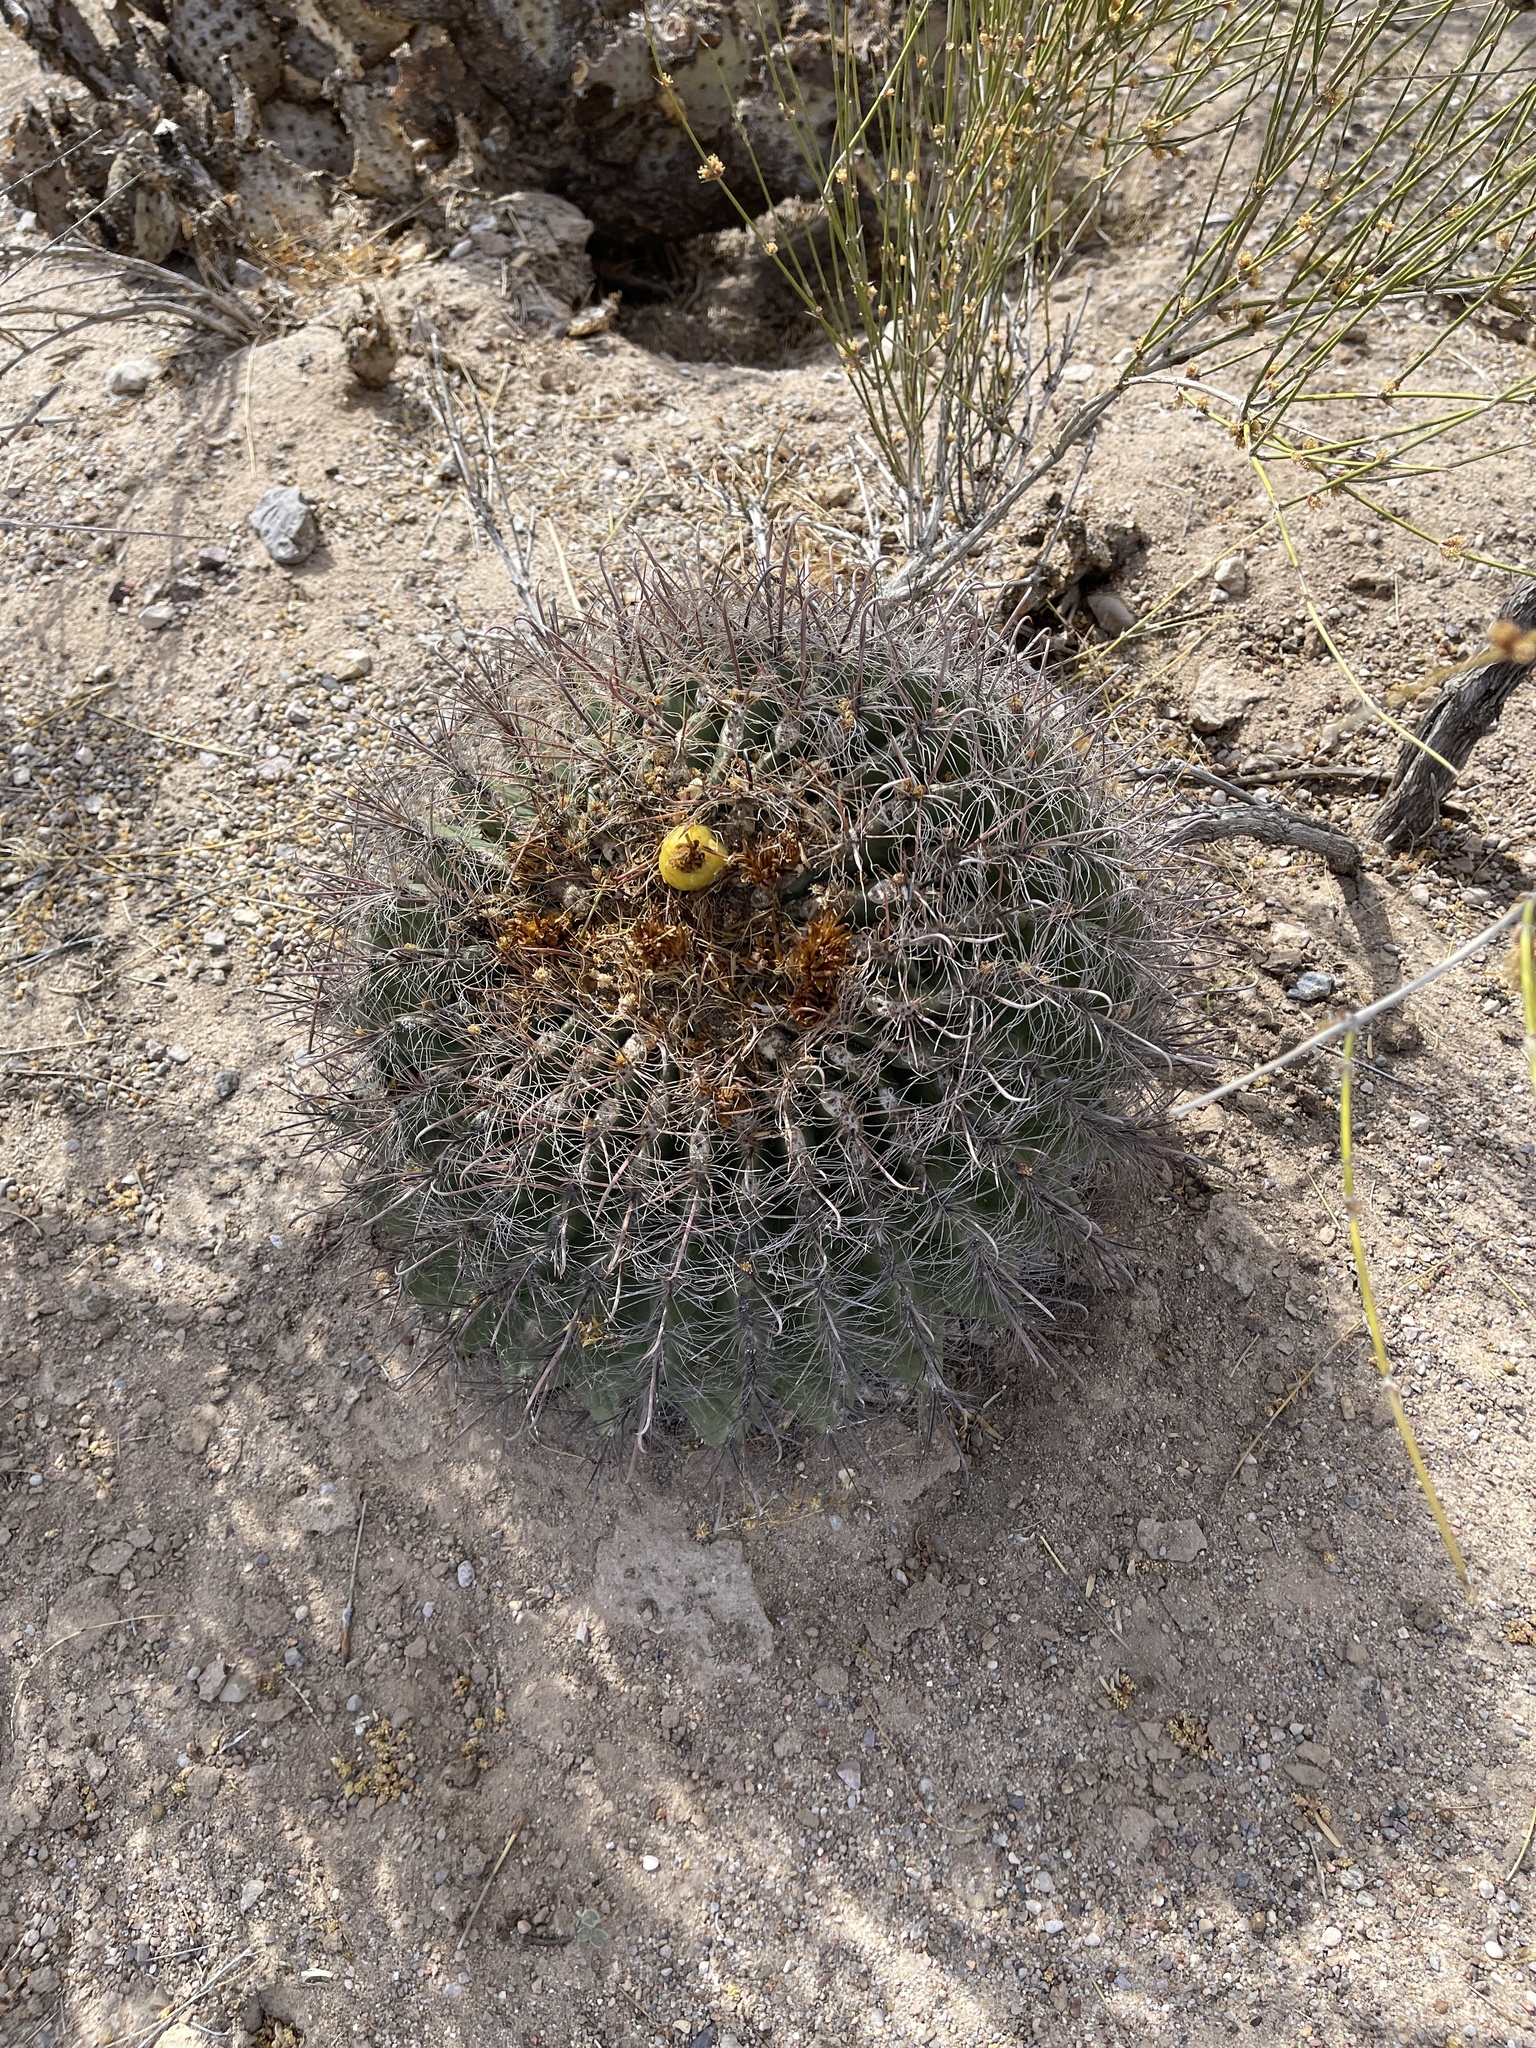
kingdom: Plantae
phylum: Tracheophyta
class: Magnoliopsida
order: Caryophyllales
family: Cactaceae
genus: Ferocactus
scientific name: Ferocactus wislizeni
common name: Candy barrel cactus
